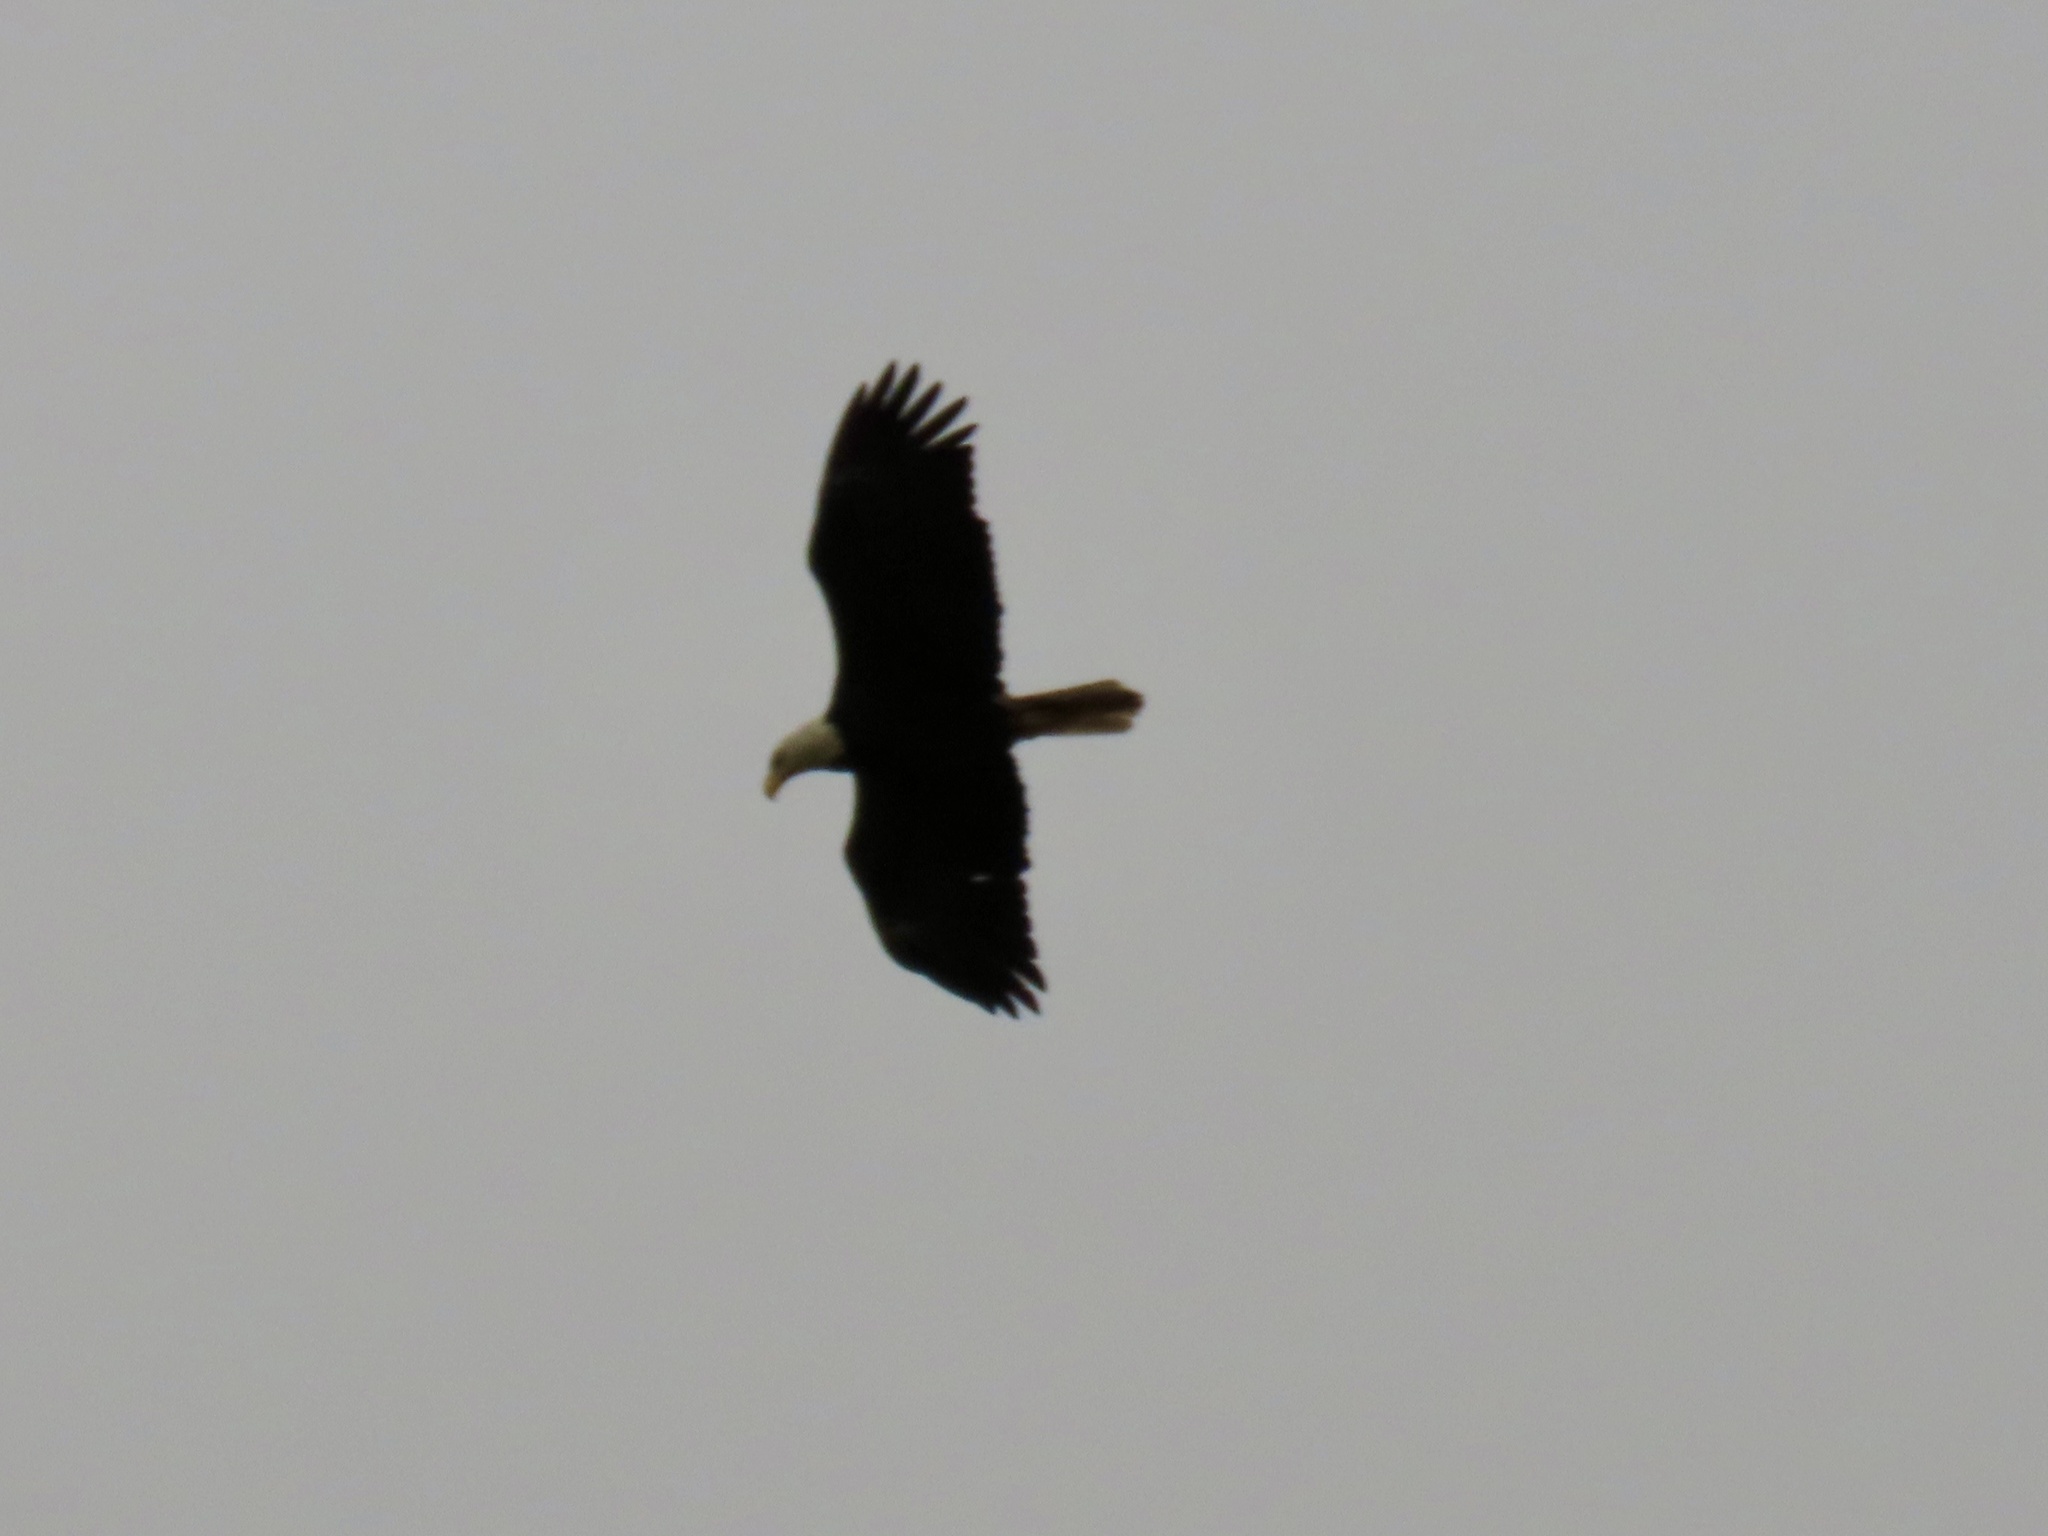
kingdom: Animalia
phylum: Chordata
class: Aves
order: Accipitriformes
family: Accipitridae
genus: Haliaeetus
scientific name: Haliaeetus leucocephalus
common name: Bald eagle
